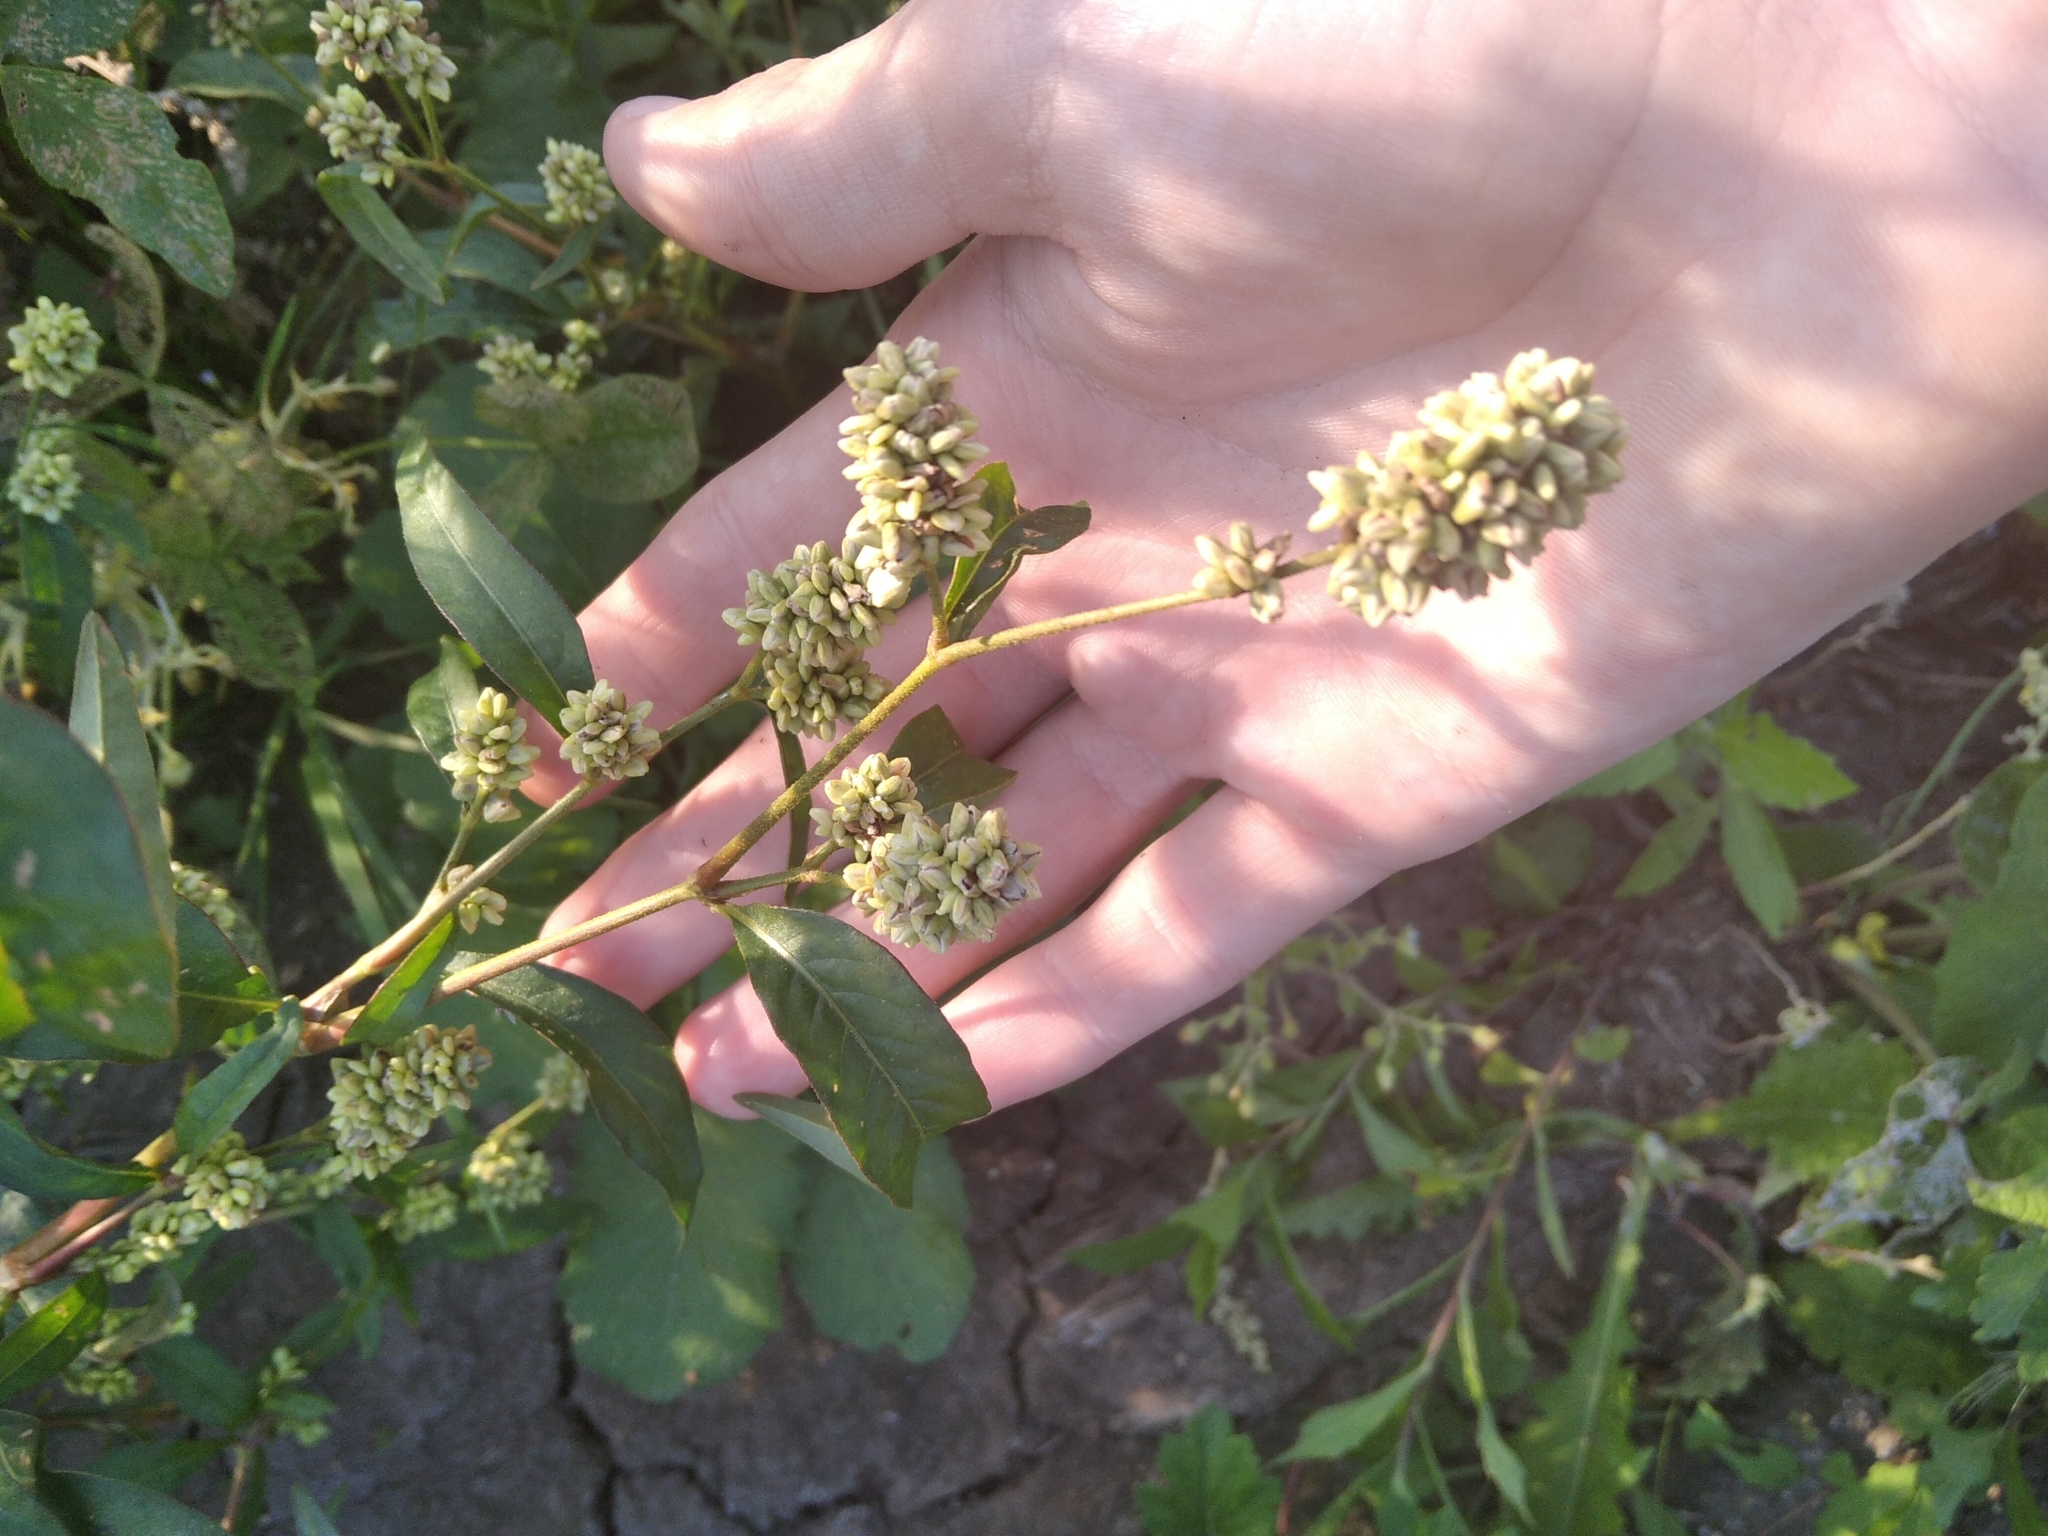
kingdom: Plantae
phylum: Tracheophyta
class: Magnoliopsida
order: Caryophyllales
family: Polygonaceae
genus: Persicaria
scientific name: Persicaria lapathifolia
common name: Curlytop knotweed
